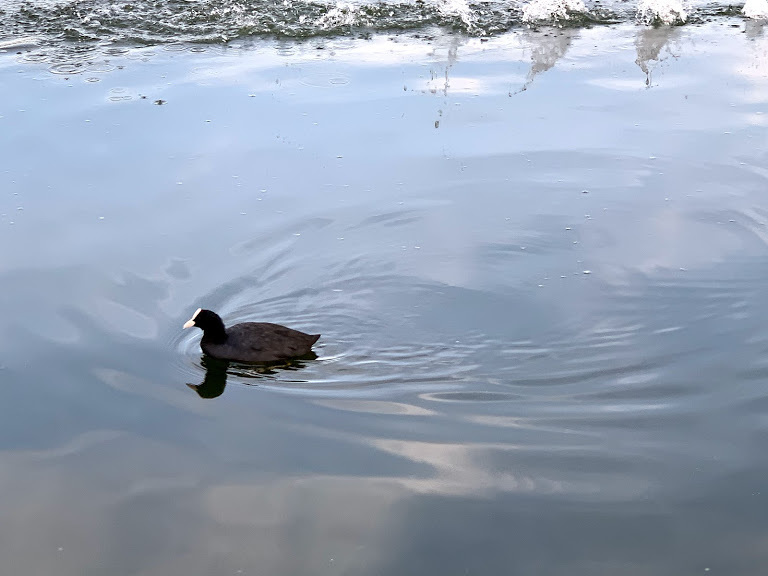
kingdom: Animalia
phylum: Chordata
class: Aves
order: Gruiformes
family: Rallidae
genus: Fulica
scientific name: Fulica atra
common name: Eurasian coot
